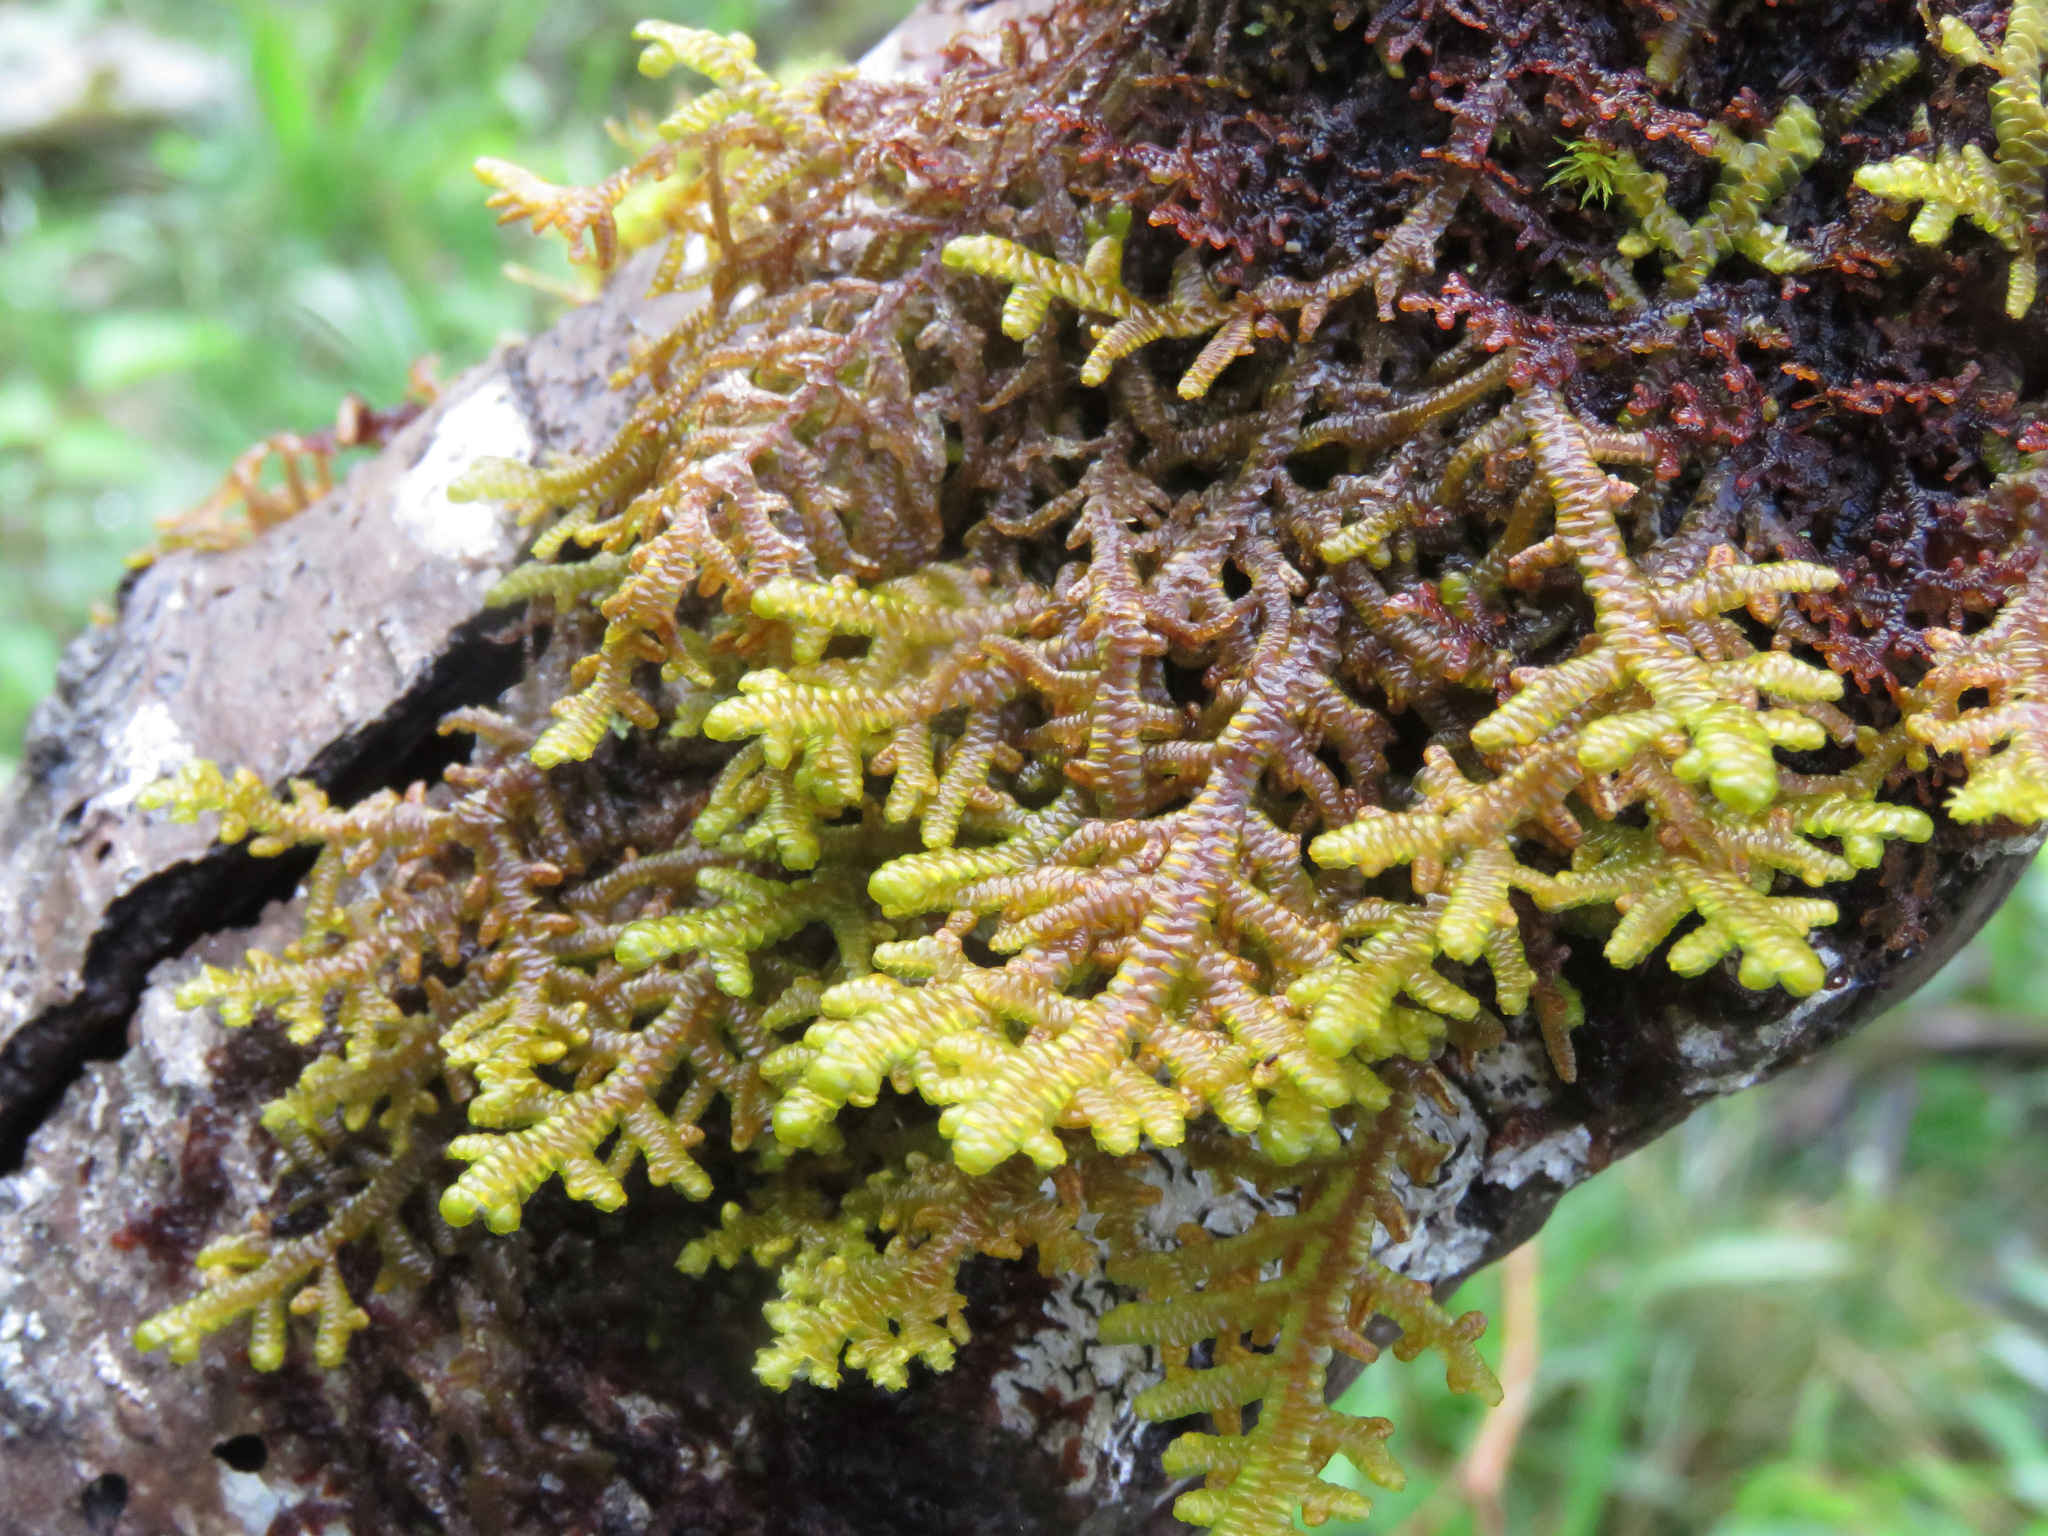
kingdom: Plantae
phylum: Marchantiophyta
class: Jungermanniopsida
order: Porellales
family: Porellaceae
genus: Porella
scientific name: Porella navicularis
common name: Tree ruffle liverwort
